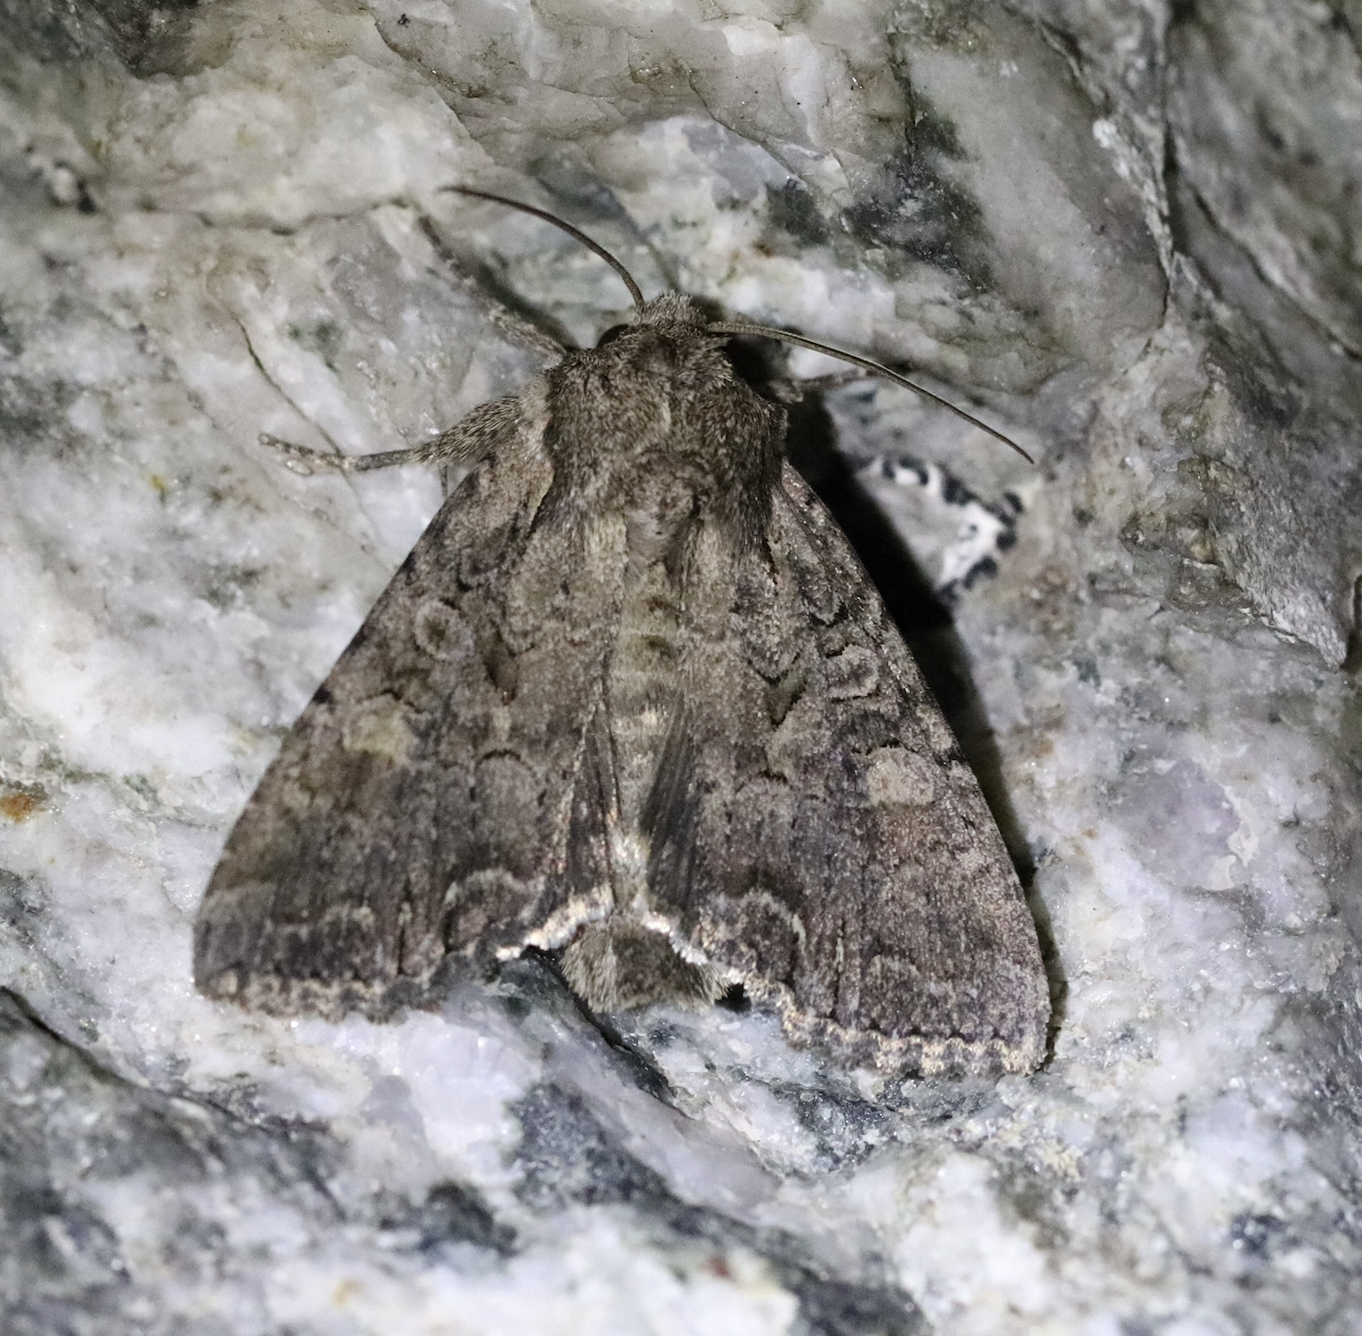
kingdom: Animalia
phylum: Arthropoda
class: Insecta
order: Lepidoptera
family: Noctuidae
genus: Lacanobia
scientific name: Lacanobia suasa
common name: Dog's tooth
